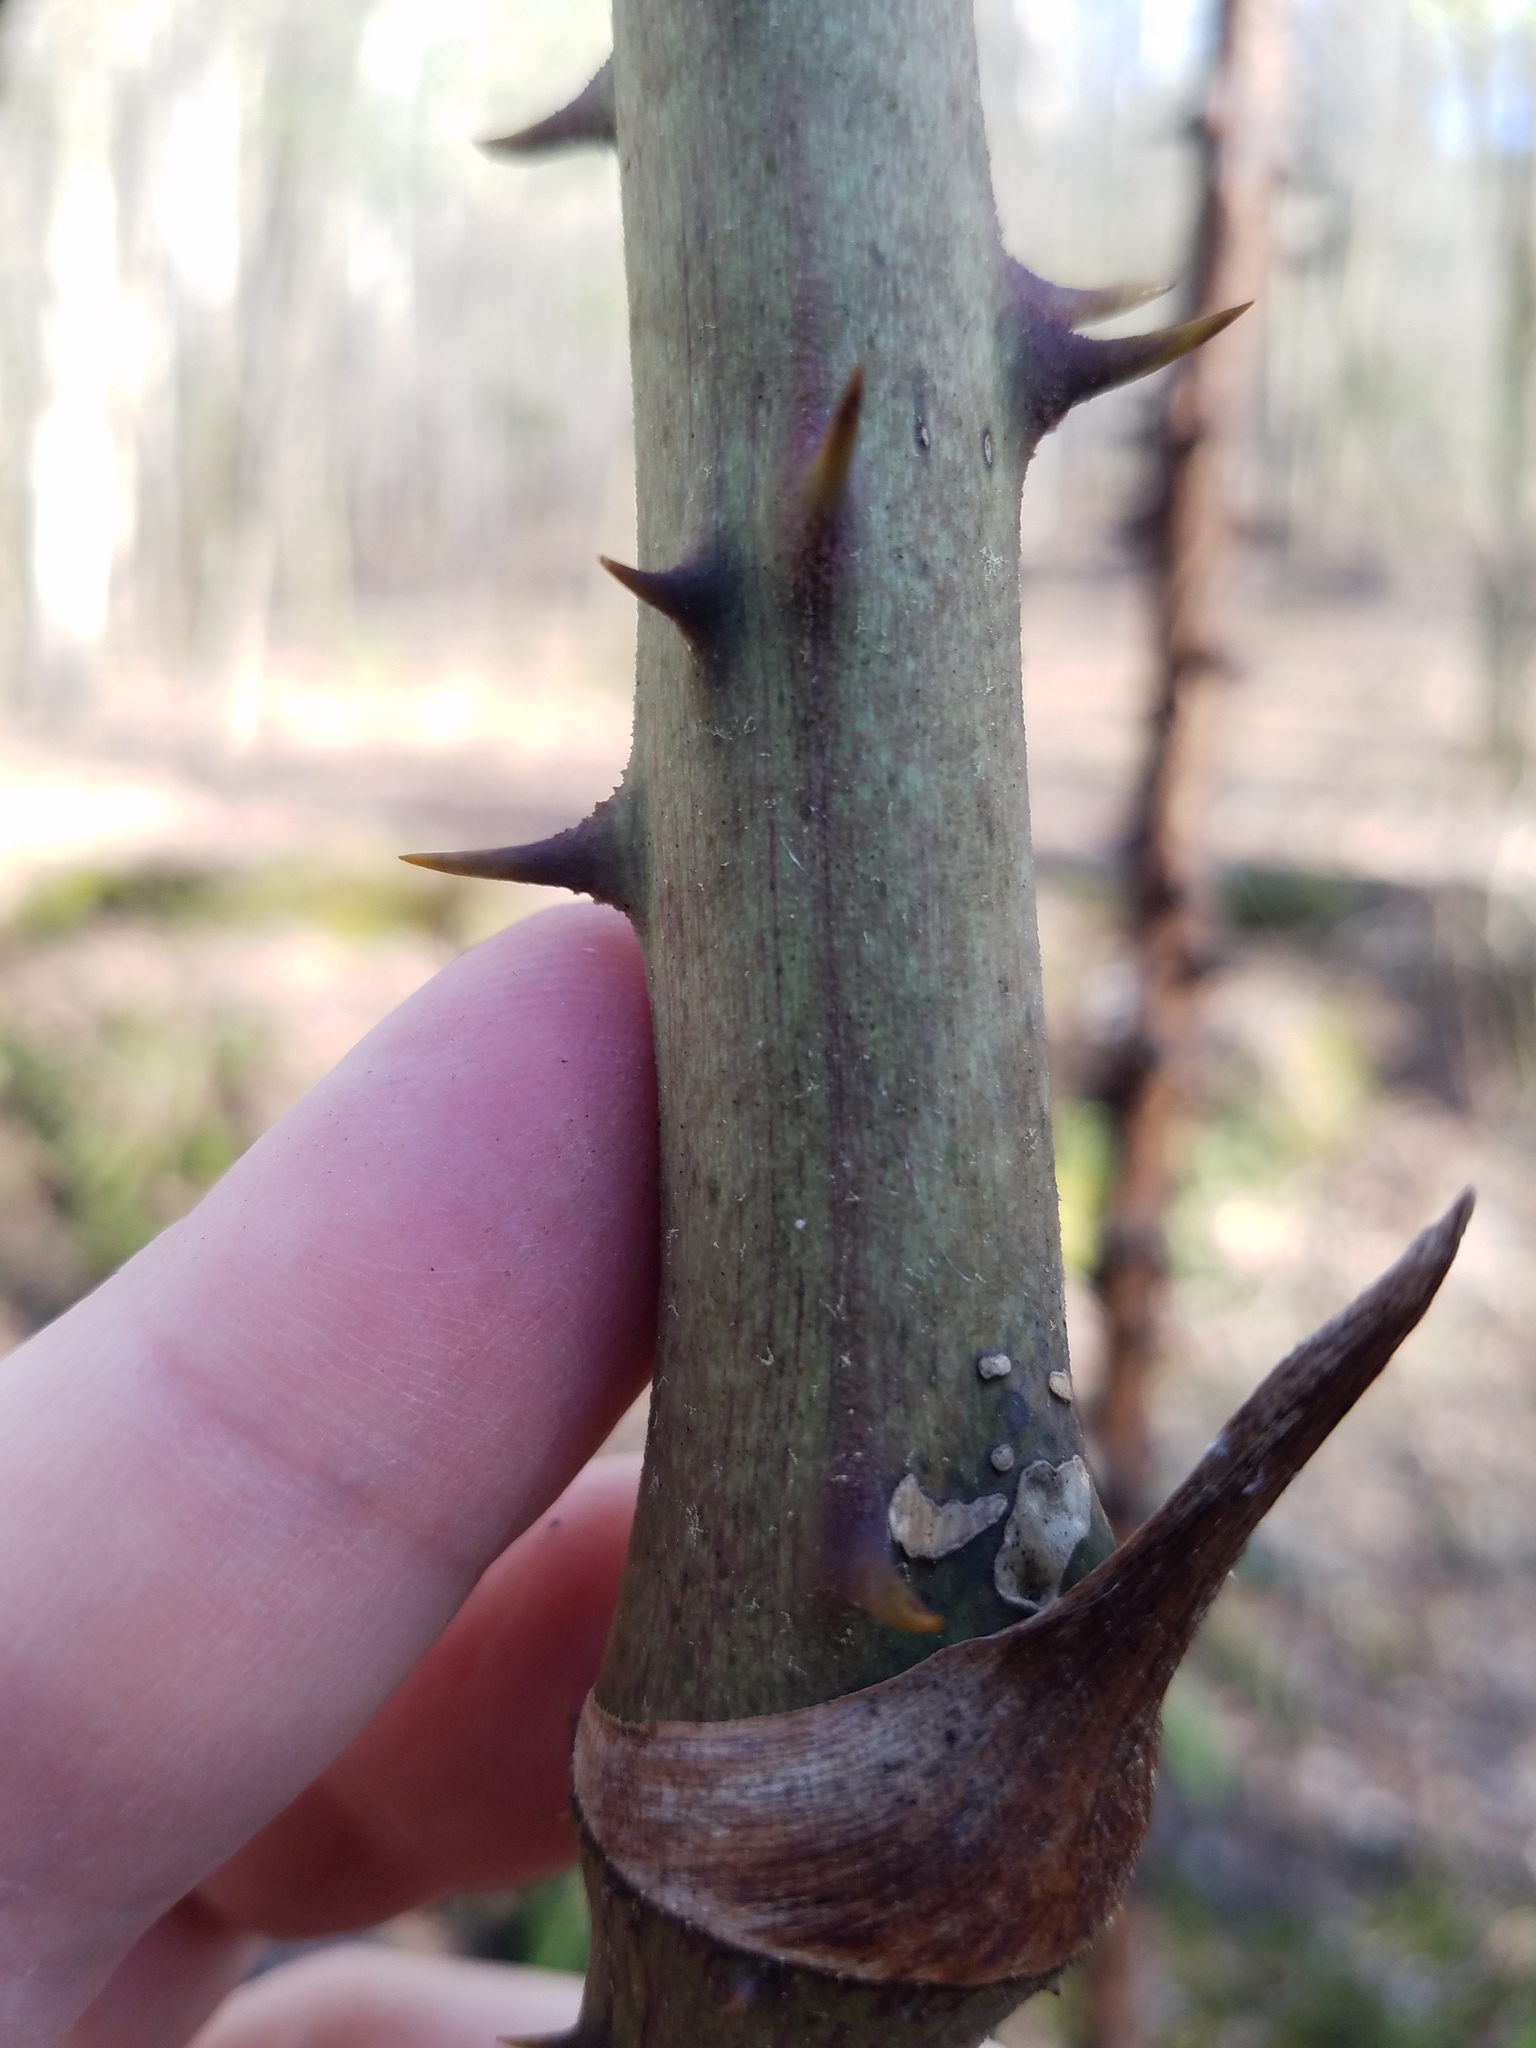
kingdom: Plantae
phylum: Tracheophyta
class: Liliopsida
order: Liliales
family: Smilacaceae
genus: Smilax
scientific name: Smilax maritima
